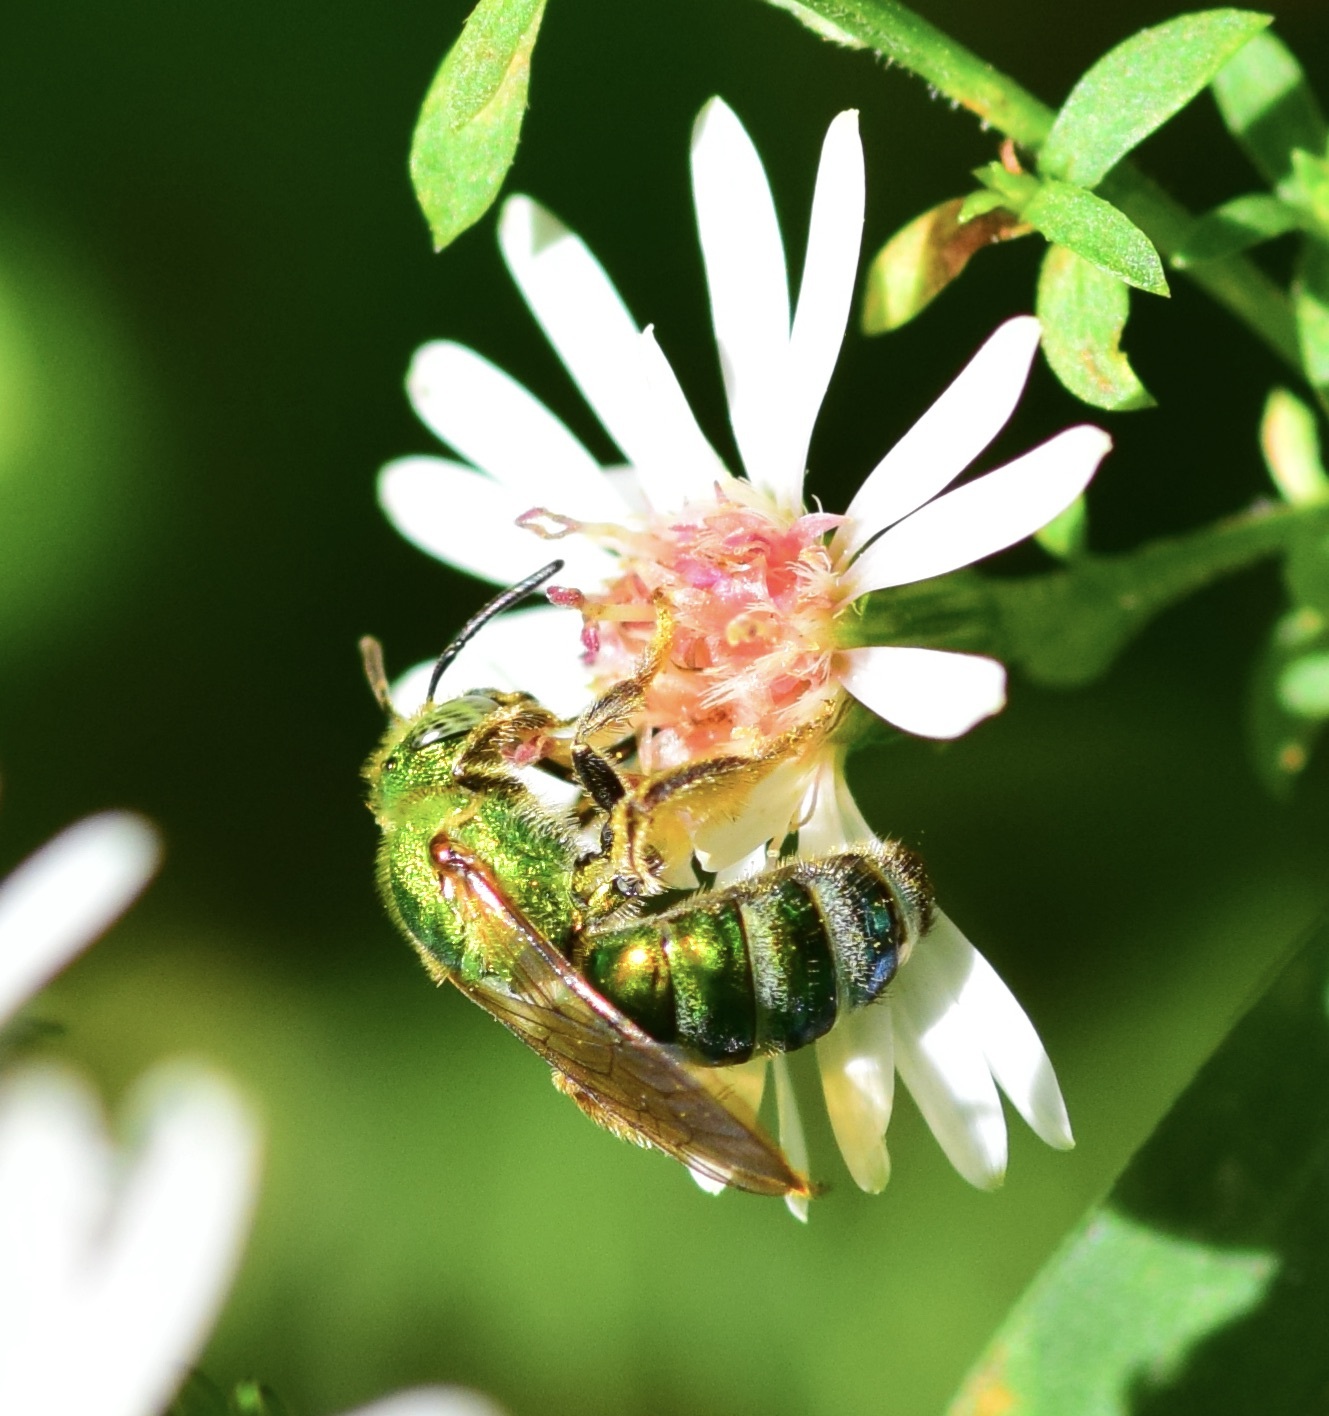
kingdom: Animalia
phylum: Arthropoda
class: Insecta
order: Hymenoptera
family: Halictidae
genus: Agapostemon
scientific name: Agapostemon sericeus
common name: Silky striped sweat bee
